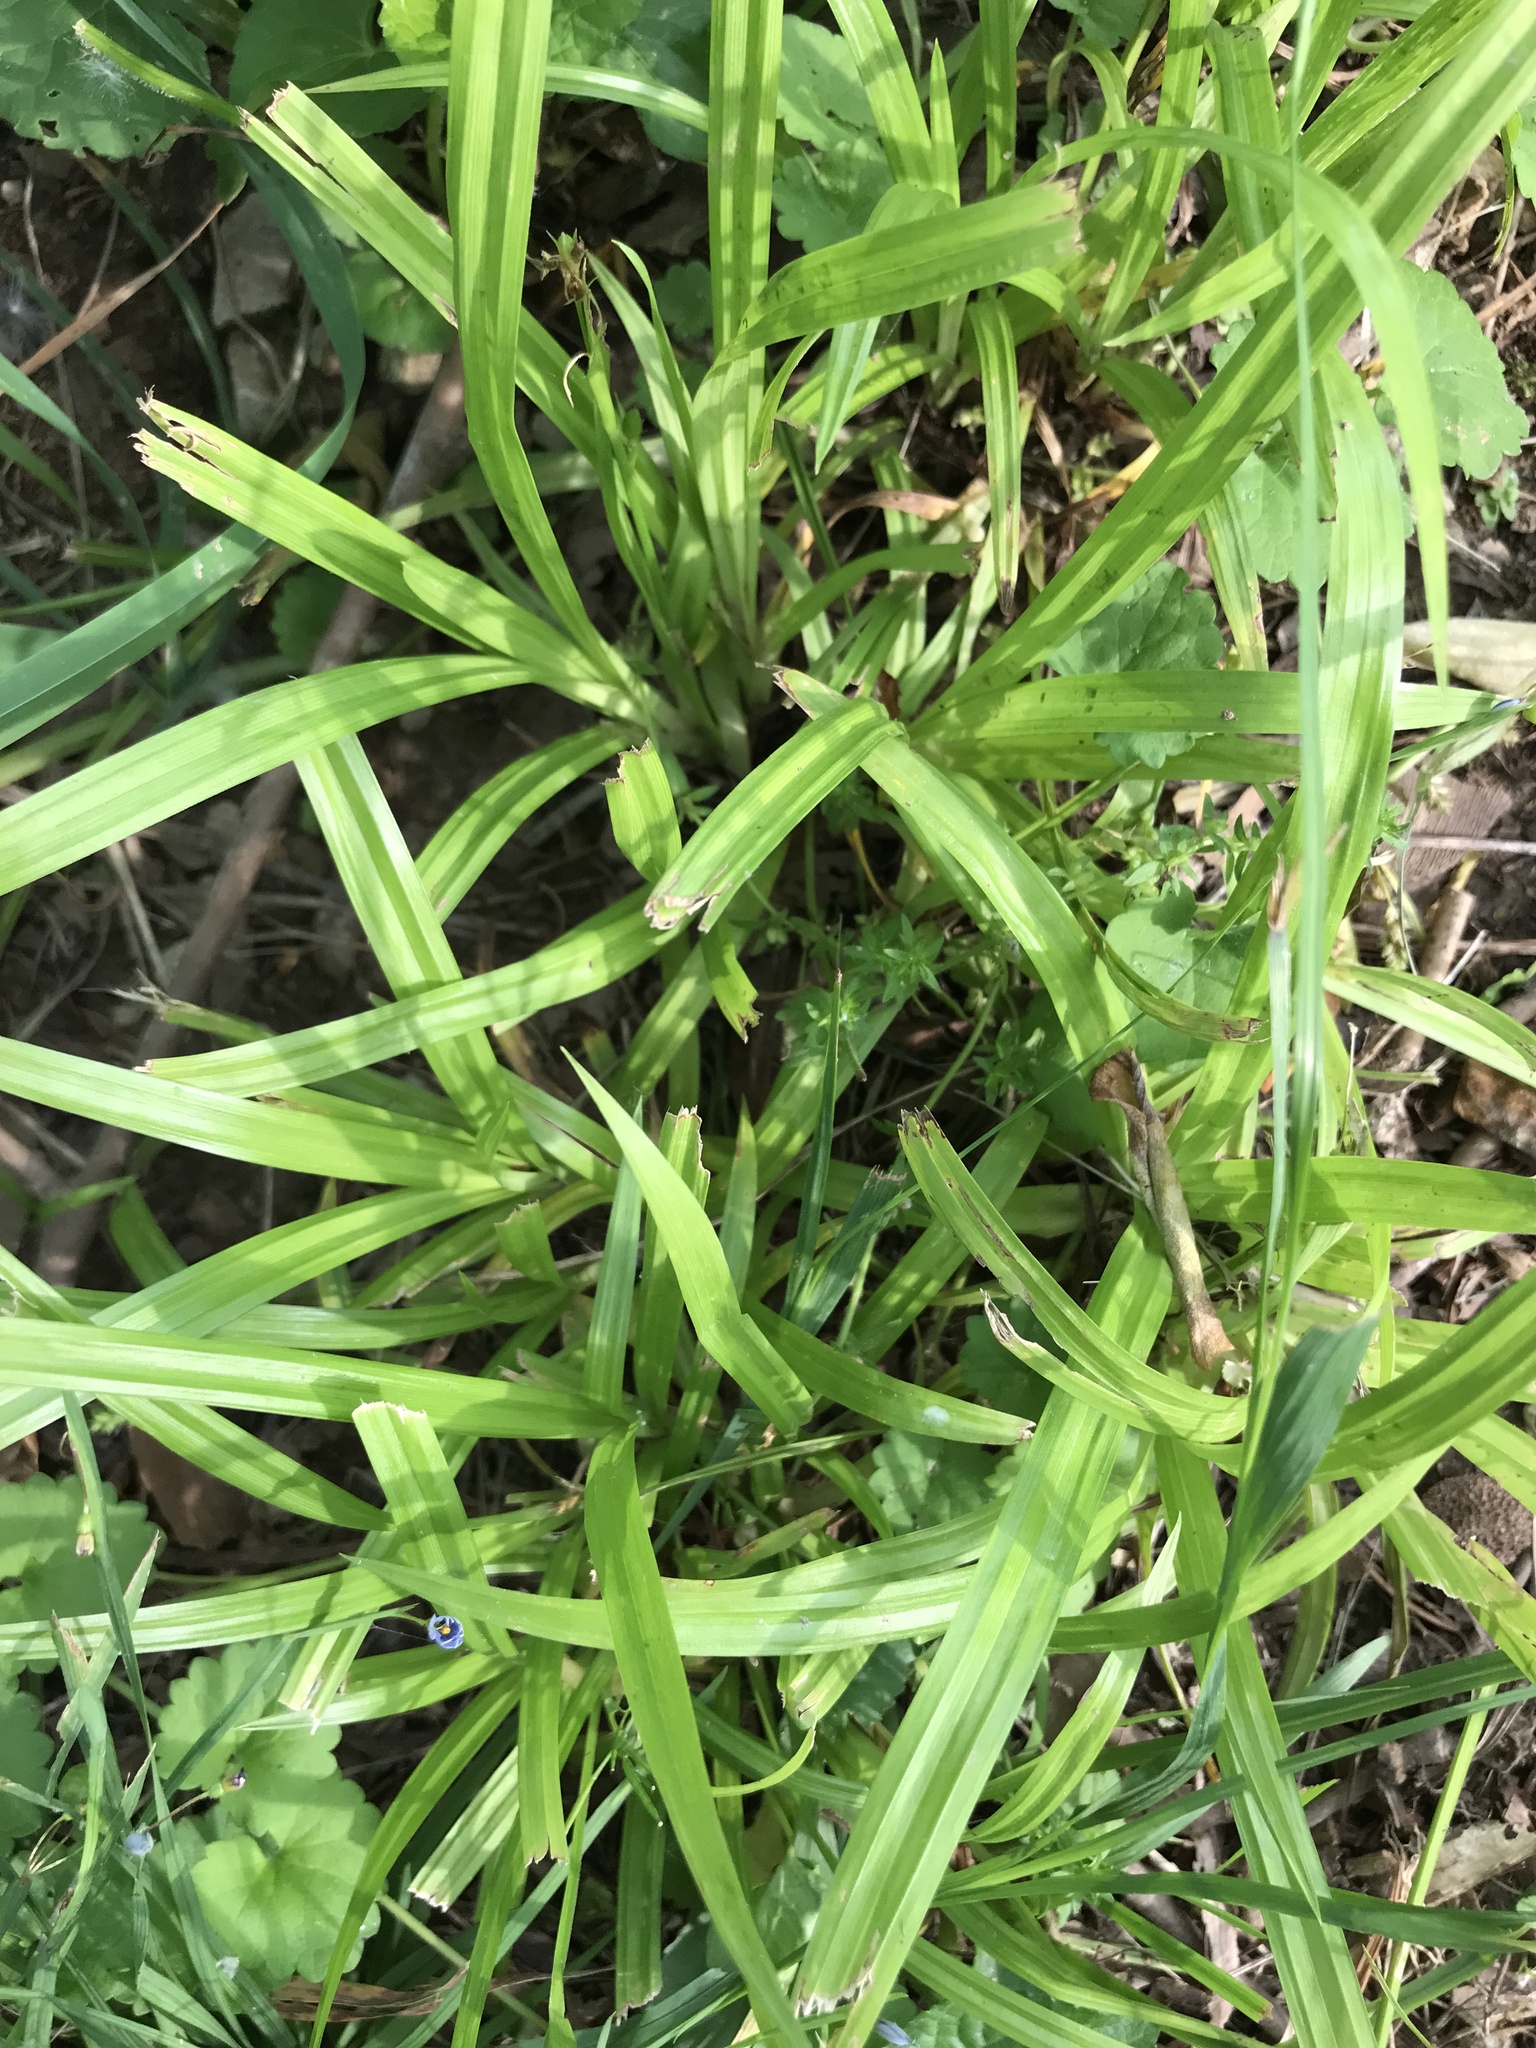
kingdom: Plantae
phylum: Tracheophyta
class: Liliopsida
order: Poales
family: Cyperaceae
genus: Carex
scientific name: Carex
